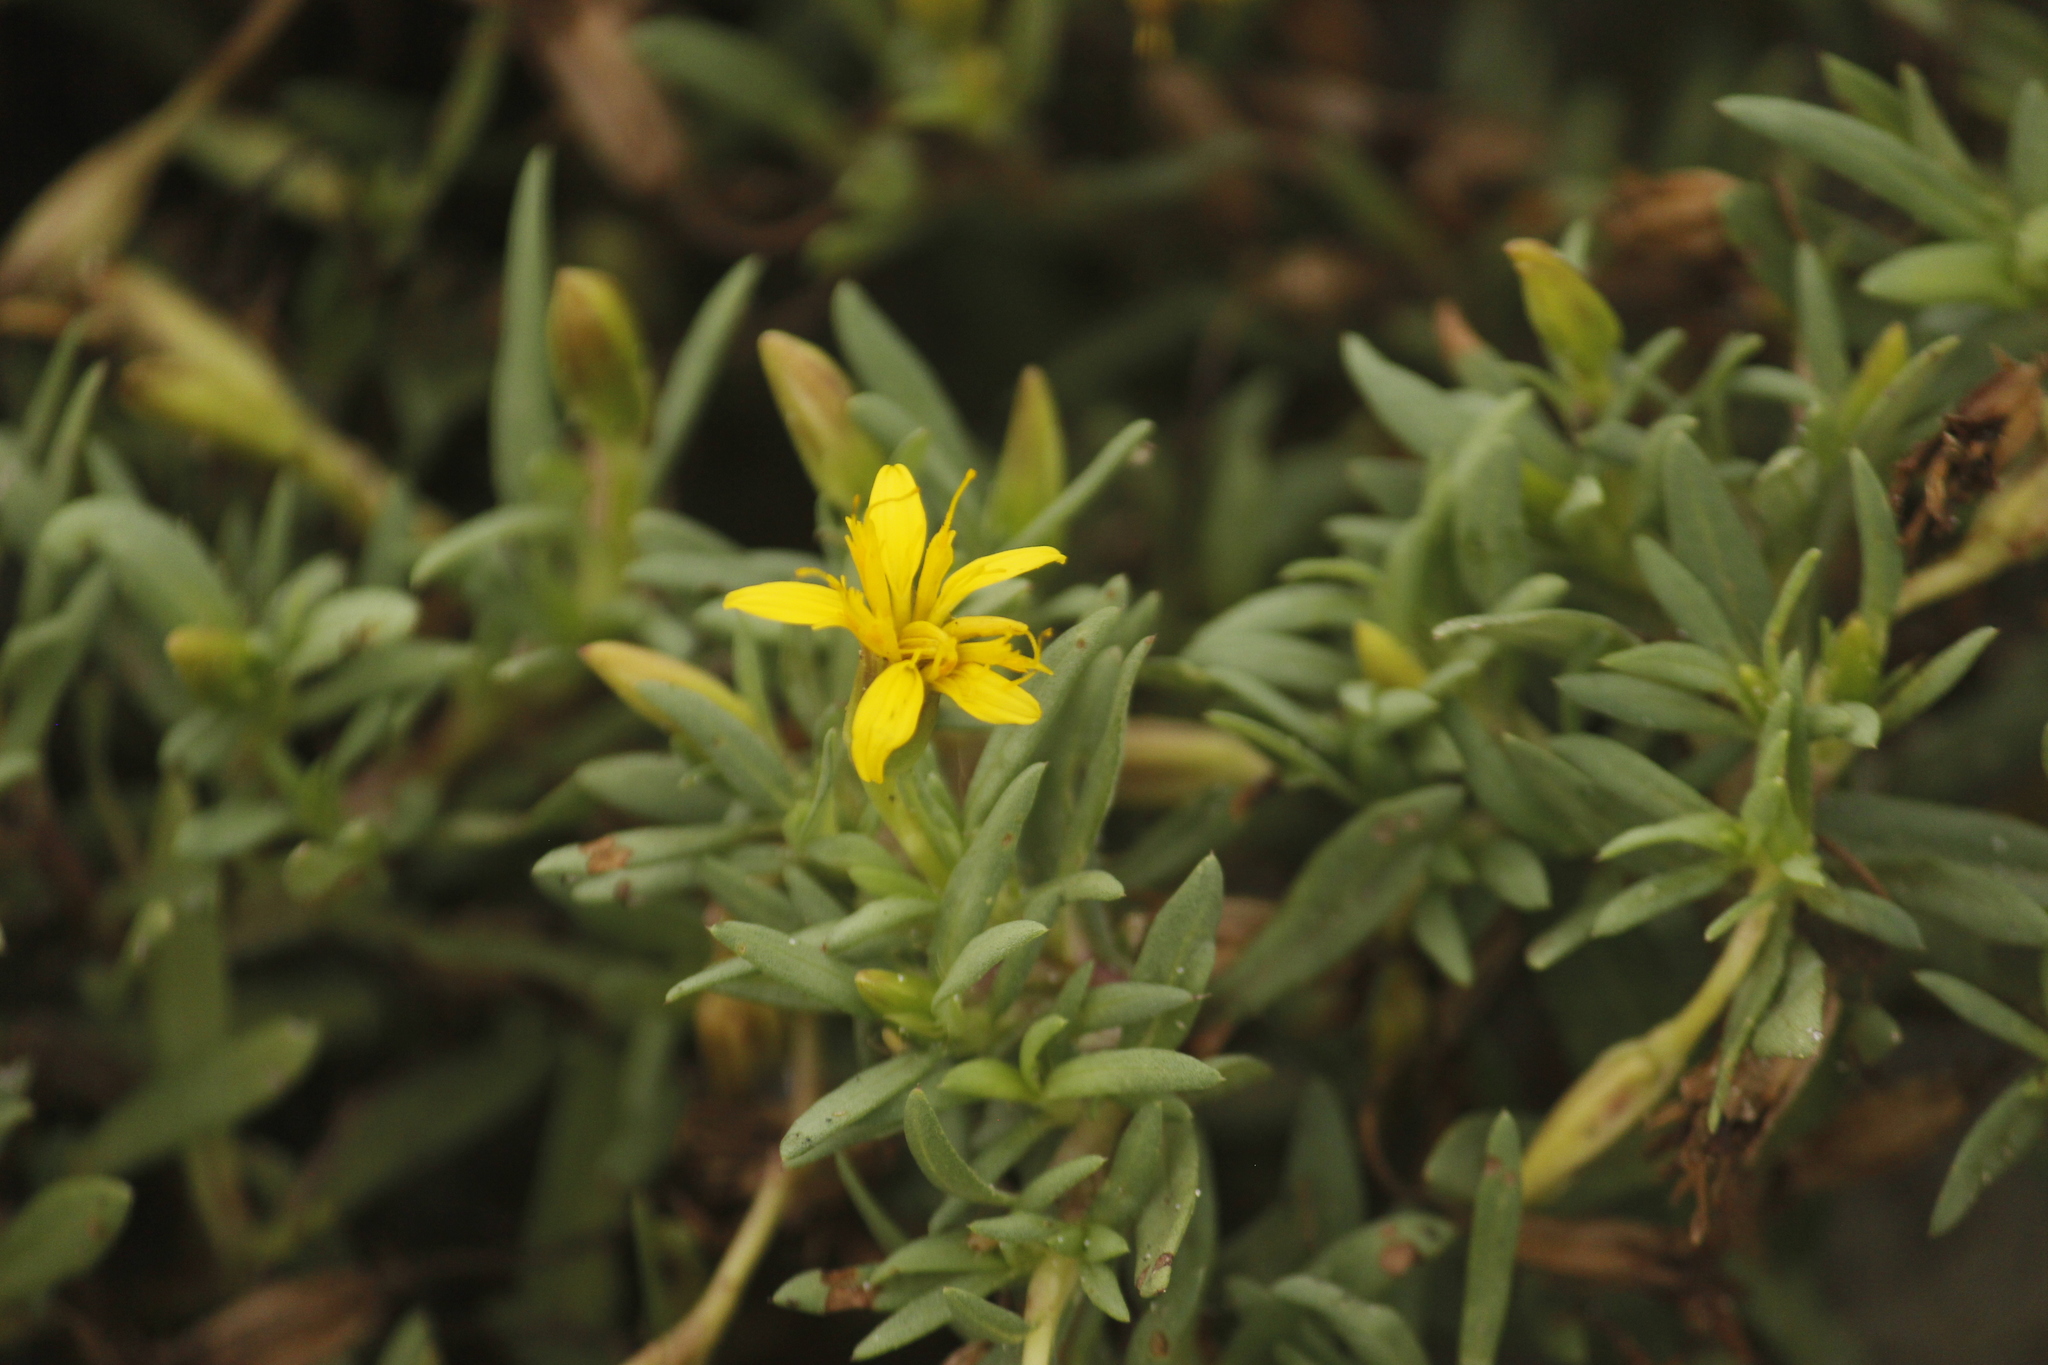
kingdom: Plantae
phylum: Tracheophyta
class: Magnoliopsida
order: Asterales
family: Asteraceae
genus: Pectis
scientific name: Pectis multiflosculosa
